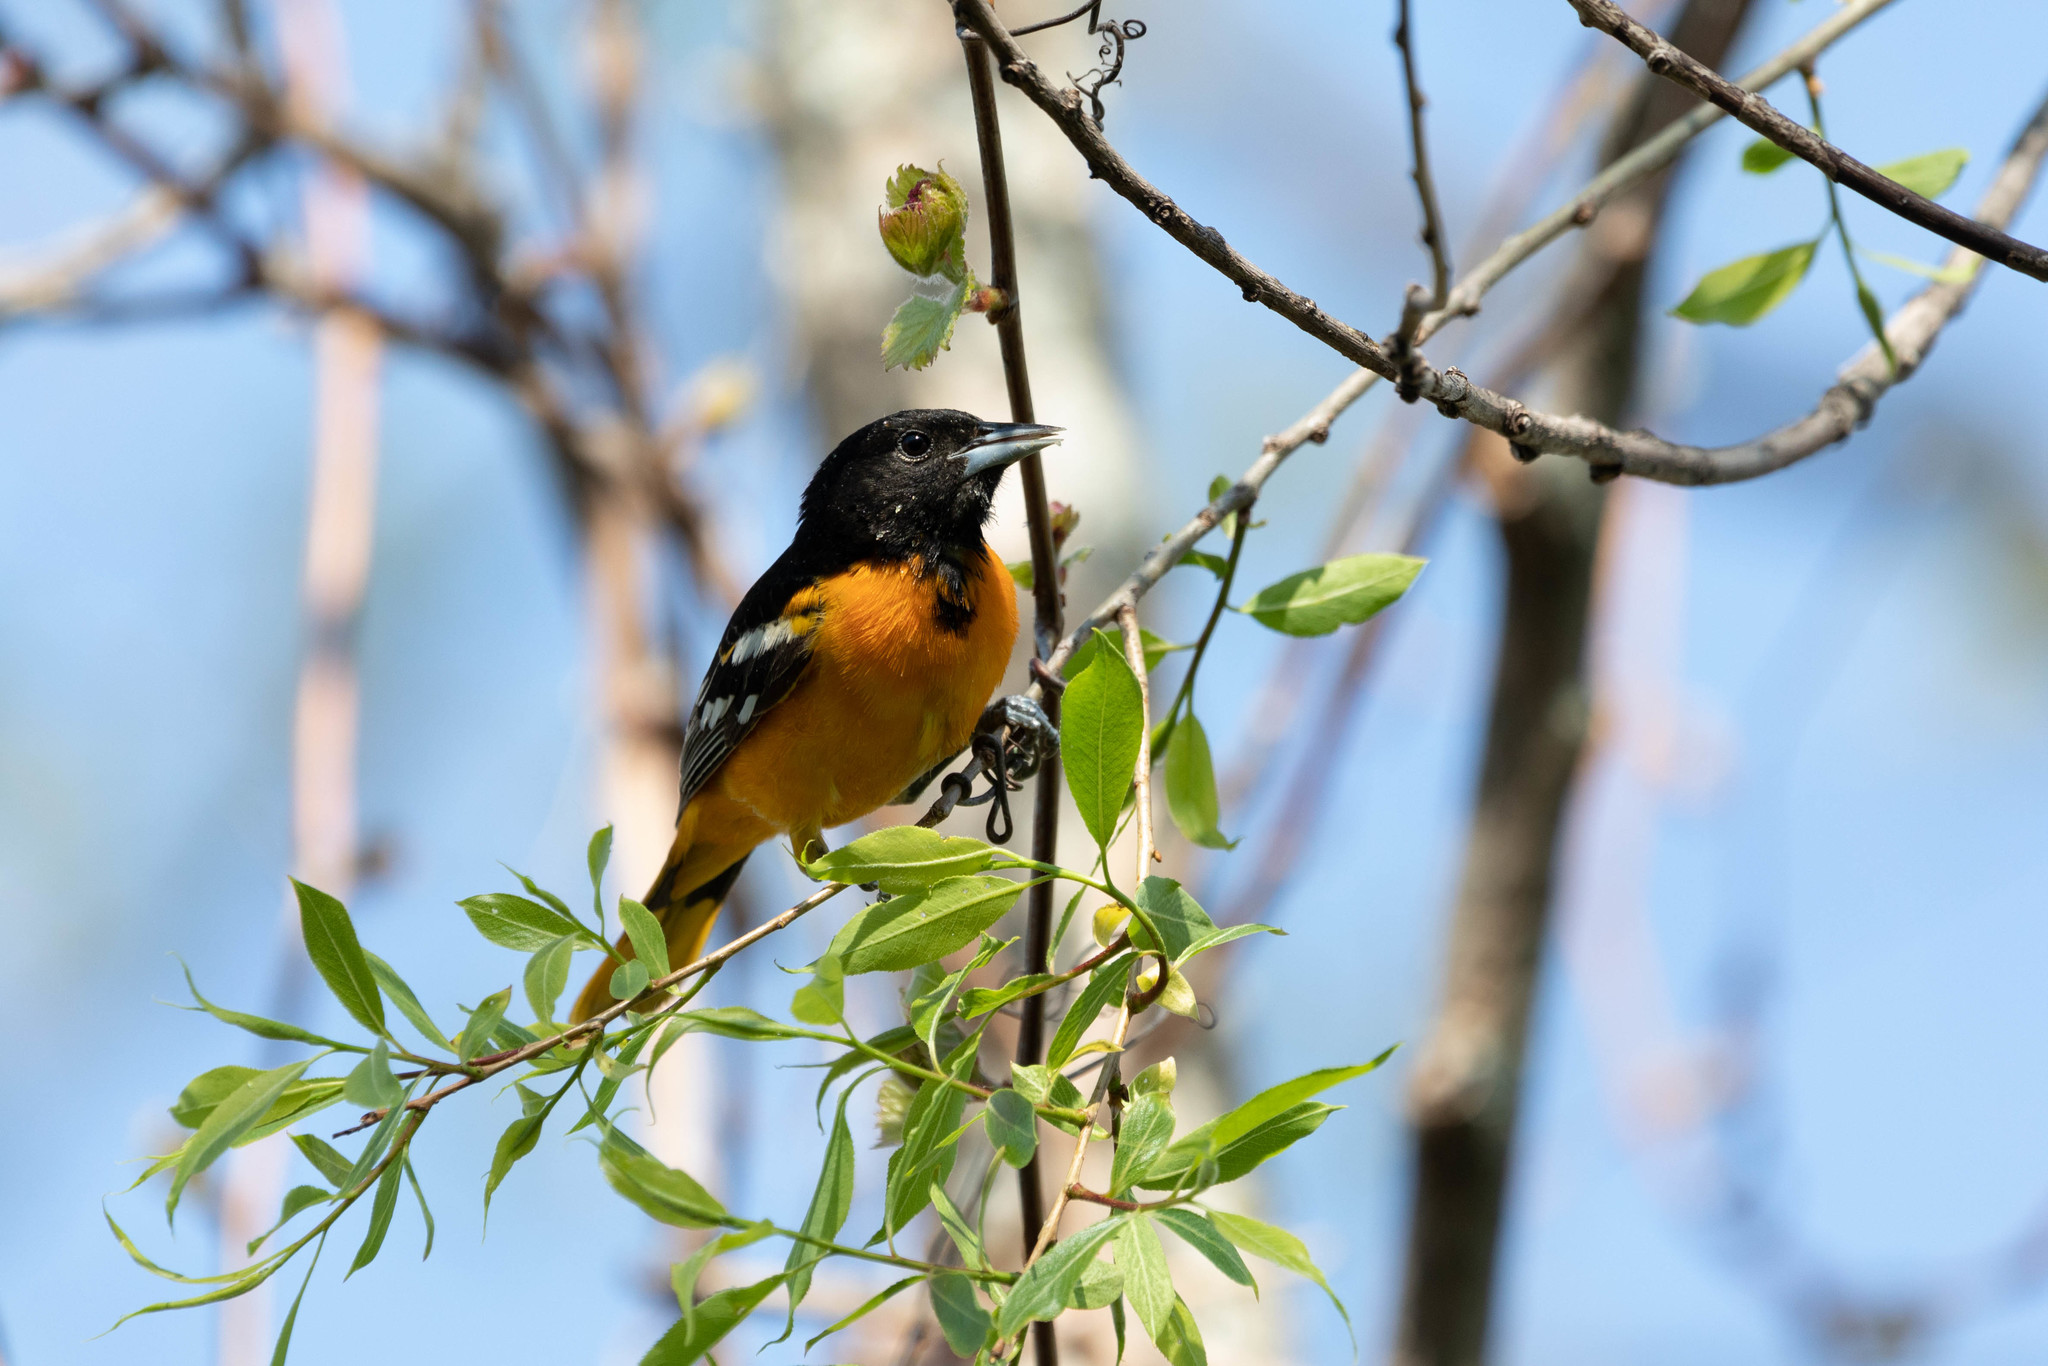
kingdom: Animalia
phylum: Chordata
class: Aves
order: Passeriformes
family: Icteridae
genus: Icterus
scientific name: Icterus galbula
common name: Baltimore oriole
